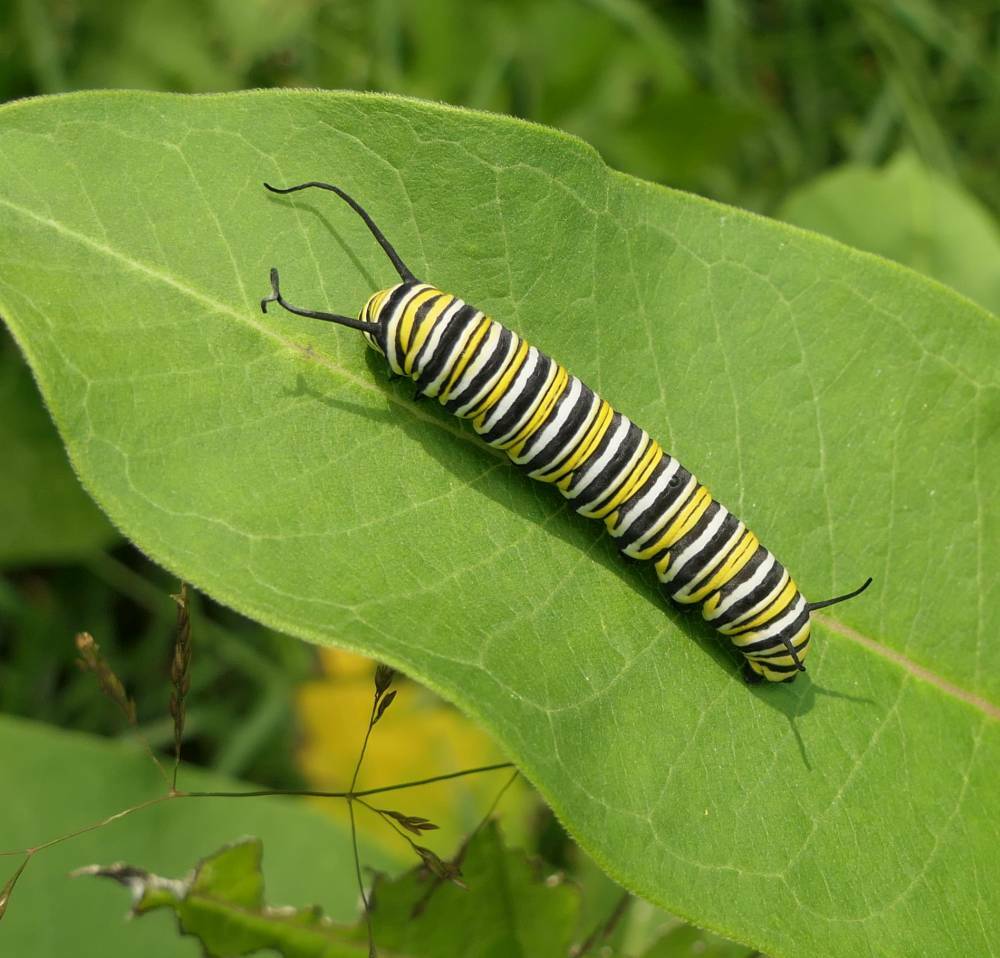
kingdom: Animalia
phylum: Arthropoda
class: Insecta
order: Lepidoptera
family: Nymphalidae
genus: Danaus
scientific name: Danaus plexippus
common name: Monarch
